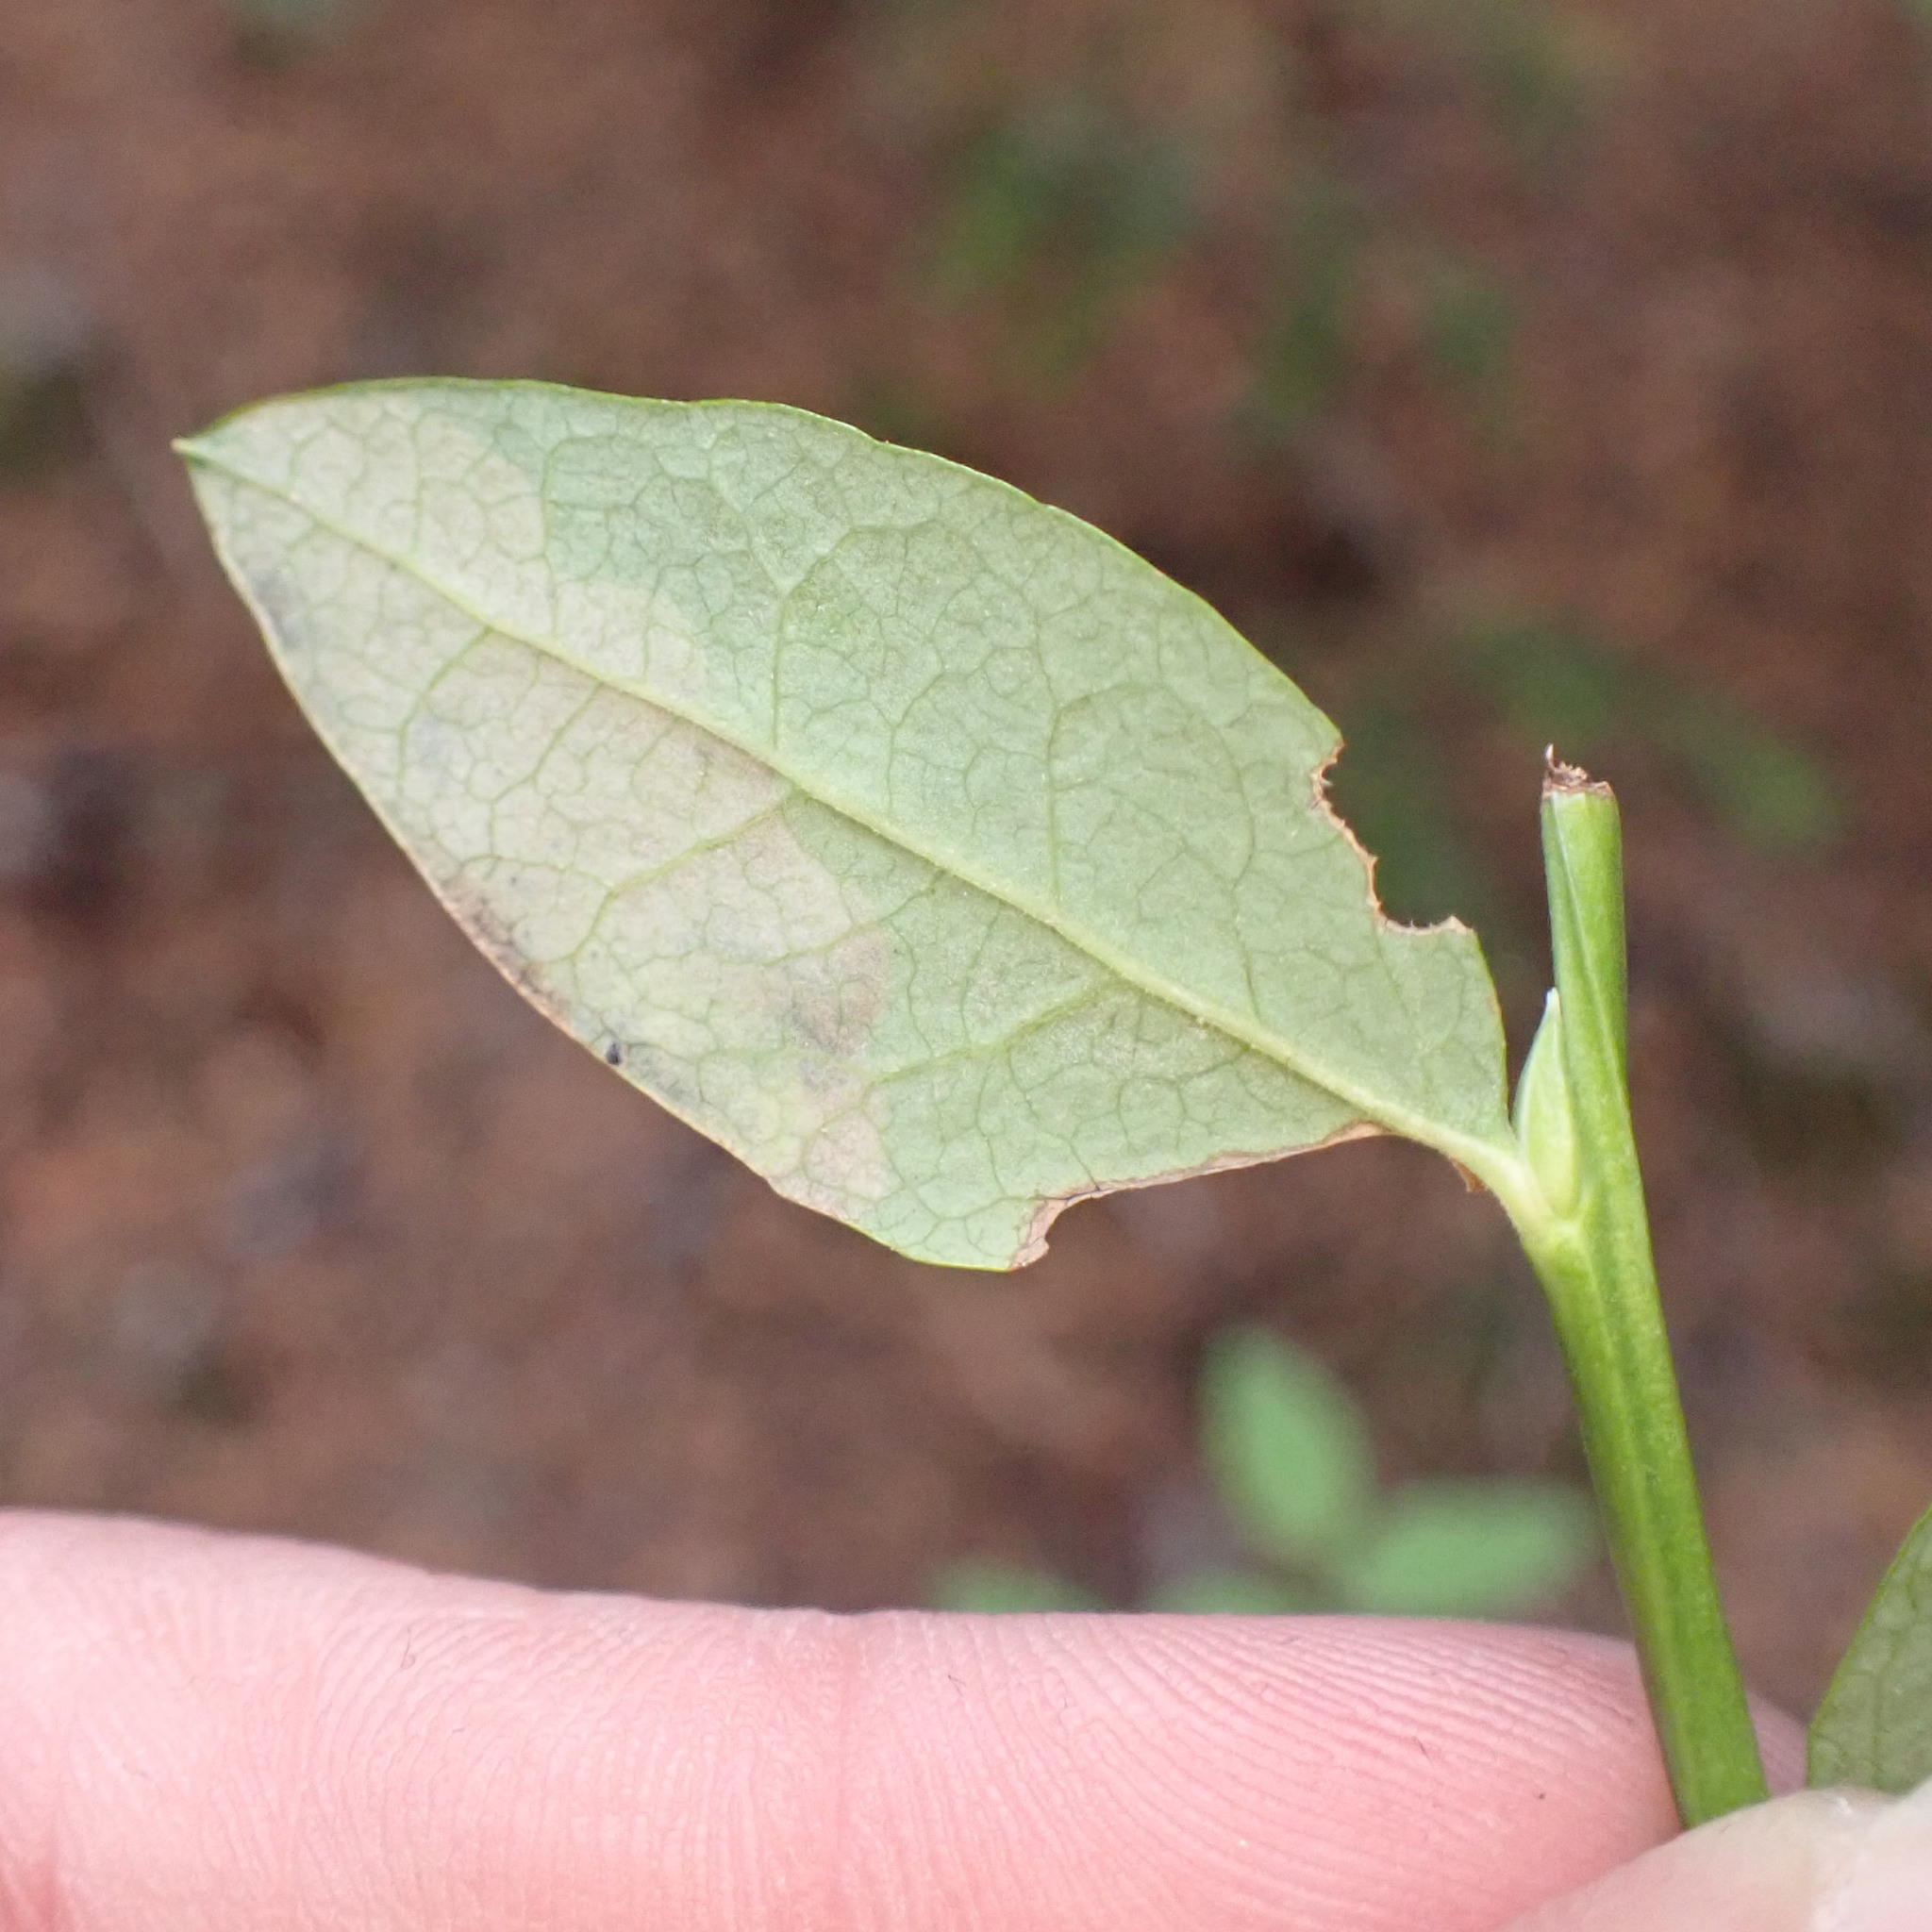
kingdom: Animalia
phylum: Arthropoda
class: Insecta
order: Hymenoptera
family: Tenthredinidae
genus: Scolioneura
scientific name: Scolioneura vaccinii
